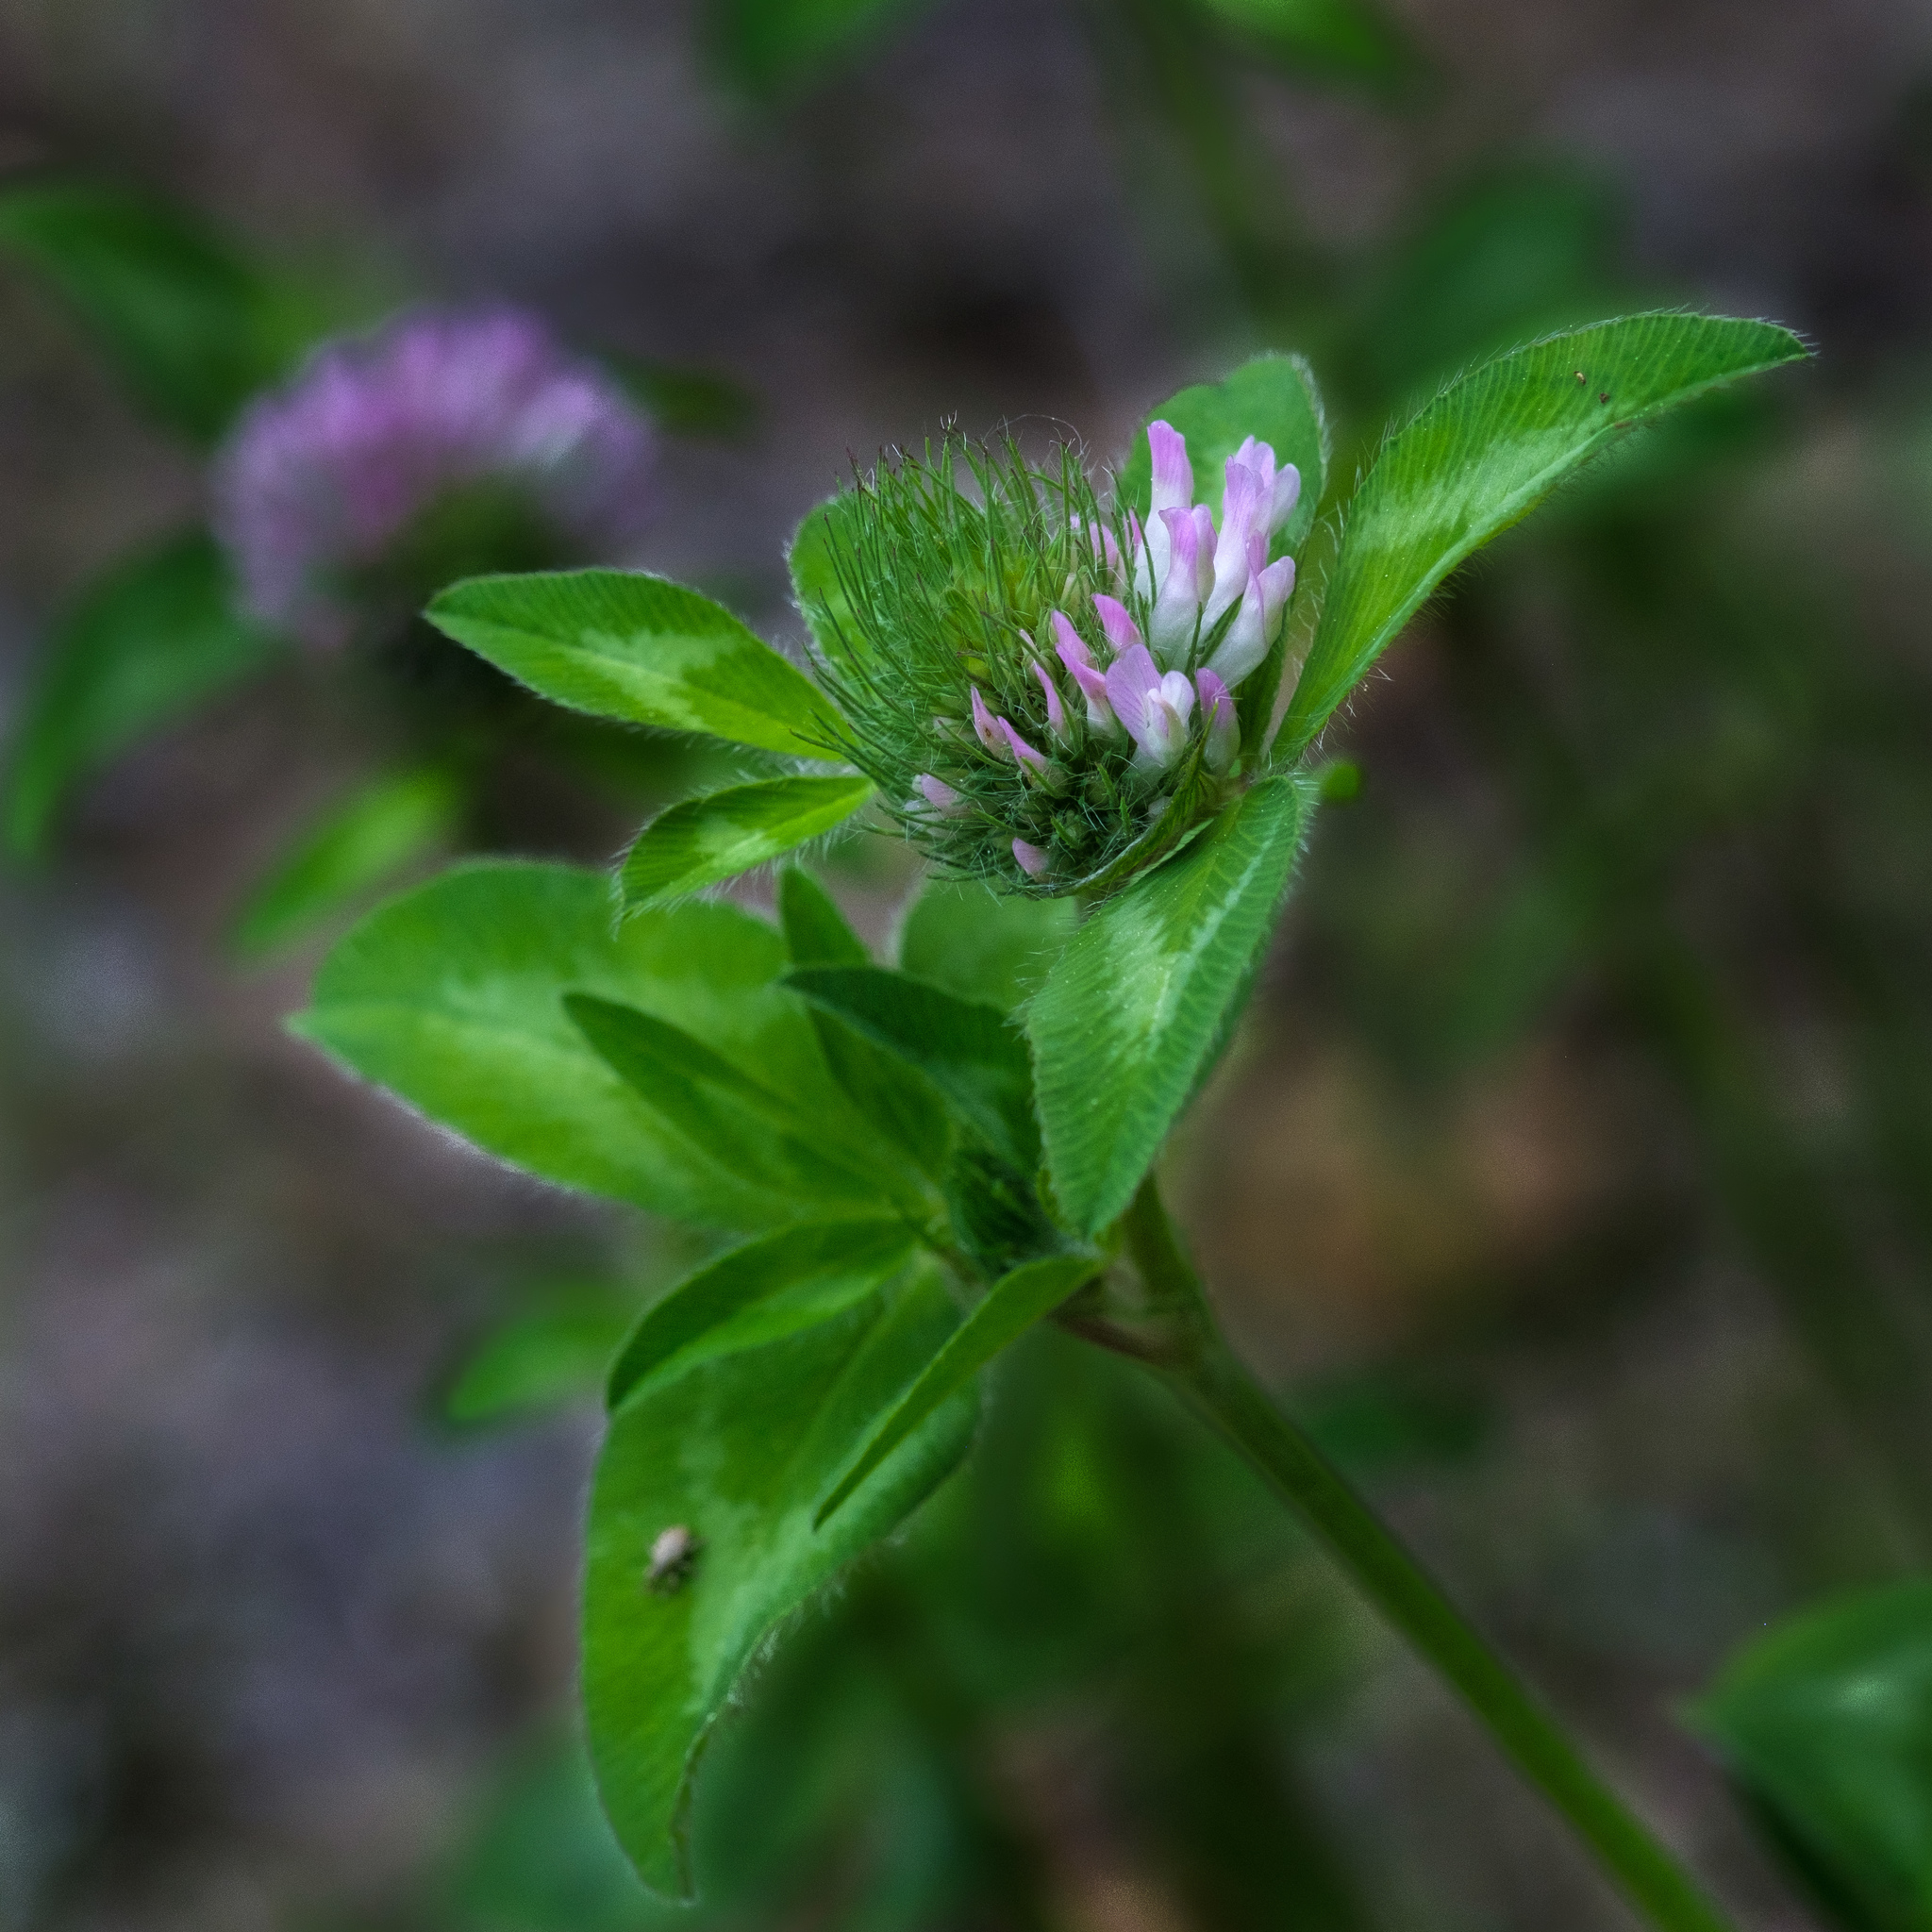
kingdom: Plantae
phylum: Tracheophyta
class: Magnoliopsida
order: Fabales
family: Fabaceae
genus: Trifolium
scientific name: Trifolium pratense
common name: Red clover
